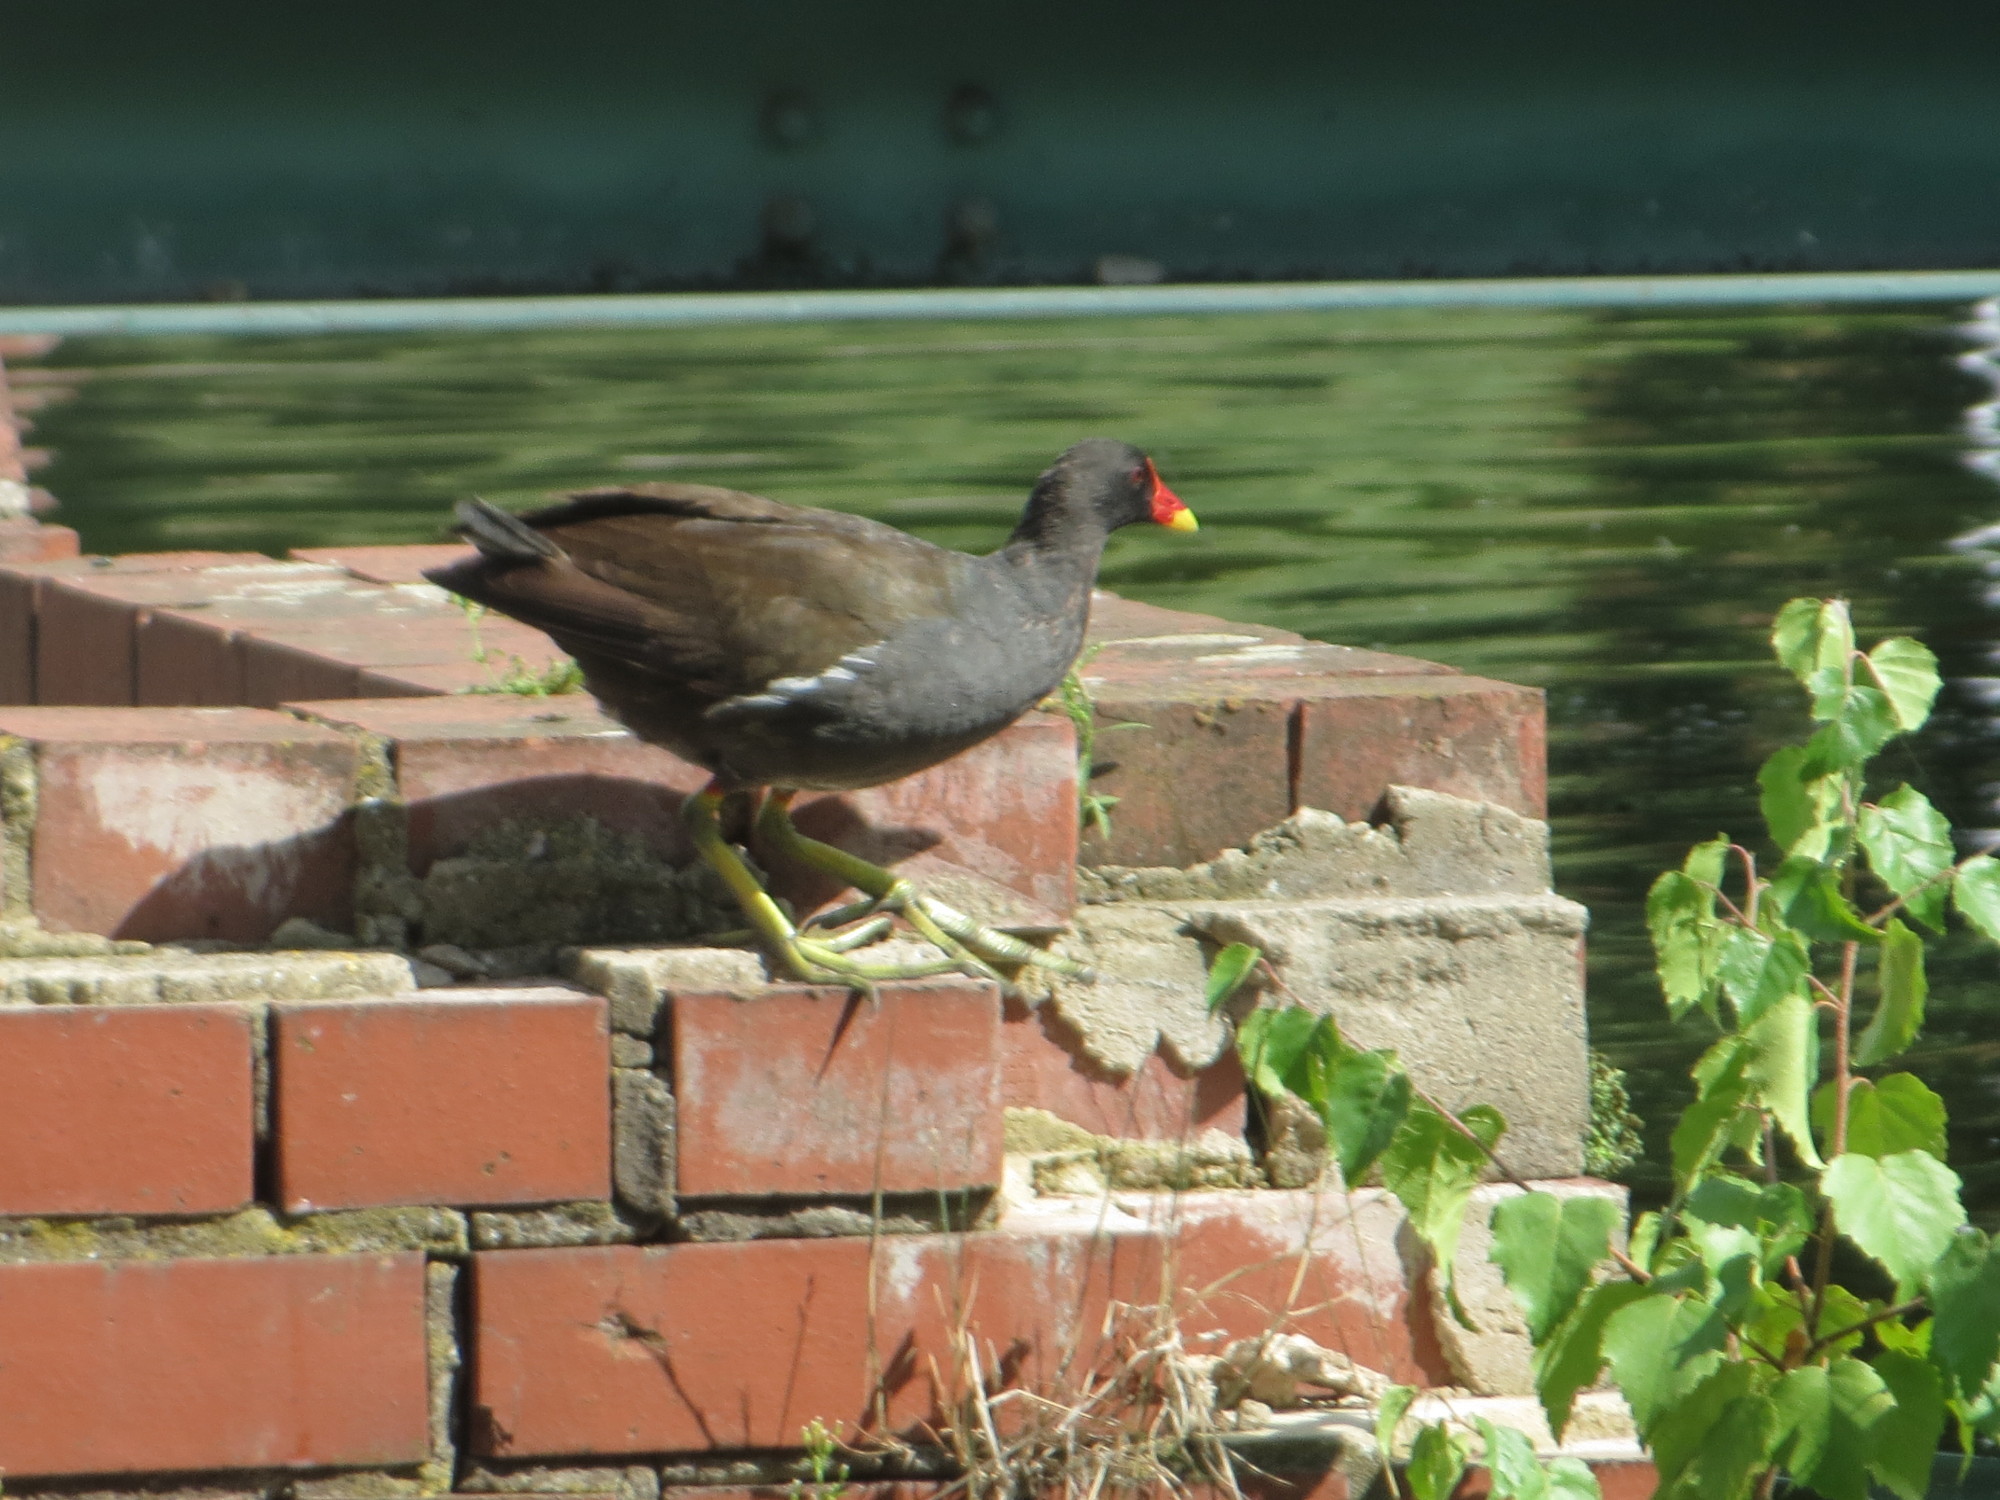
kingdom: Animalia
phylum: Chordata
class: Aves
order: Gruiformes
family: Rallidae
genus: Gallinula
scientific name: Gallinula chloropus
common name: Common moorhen
